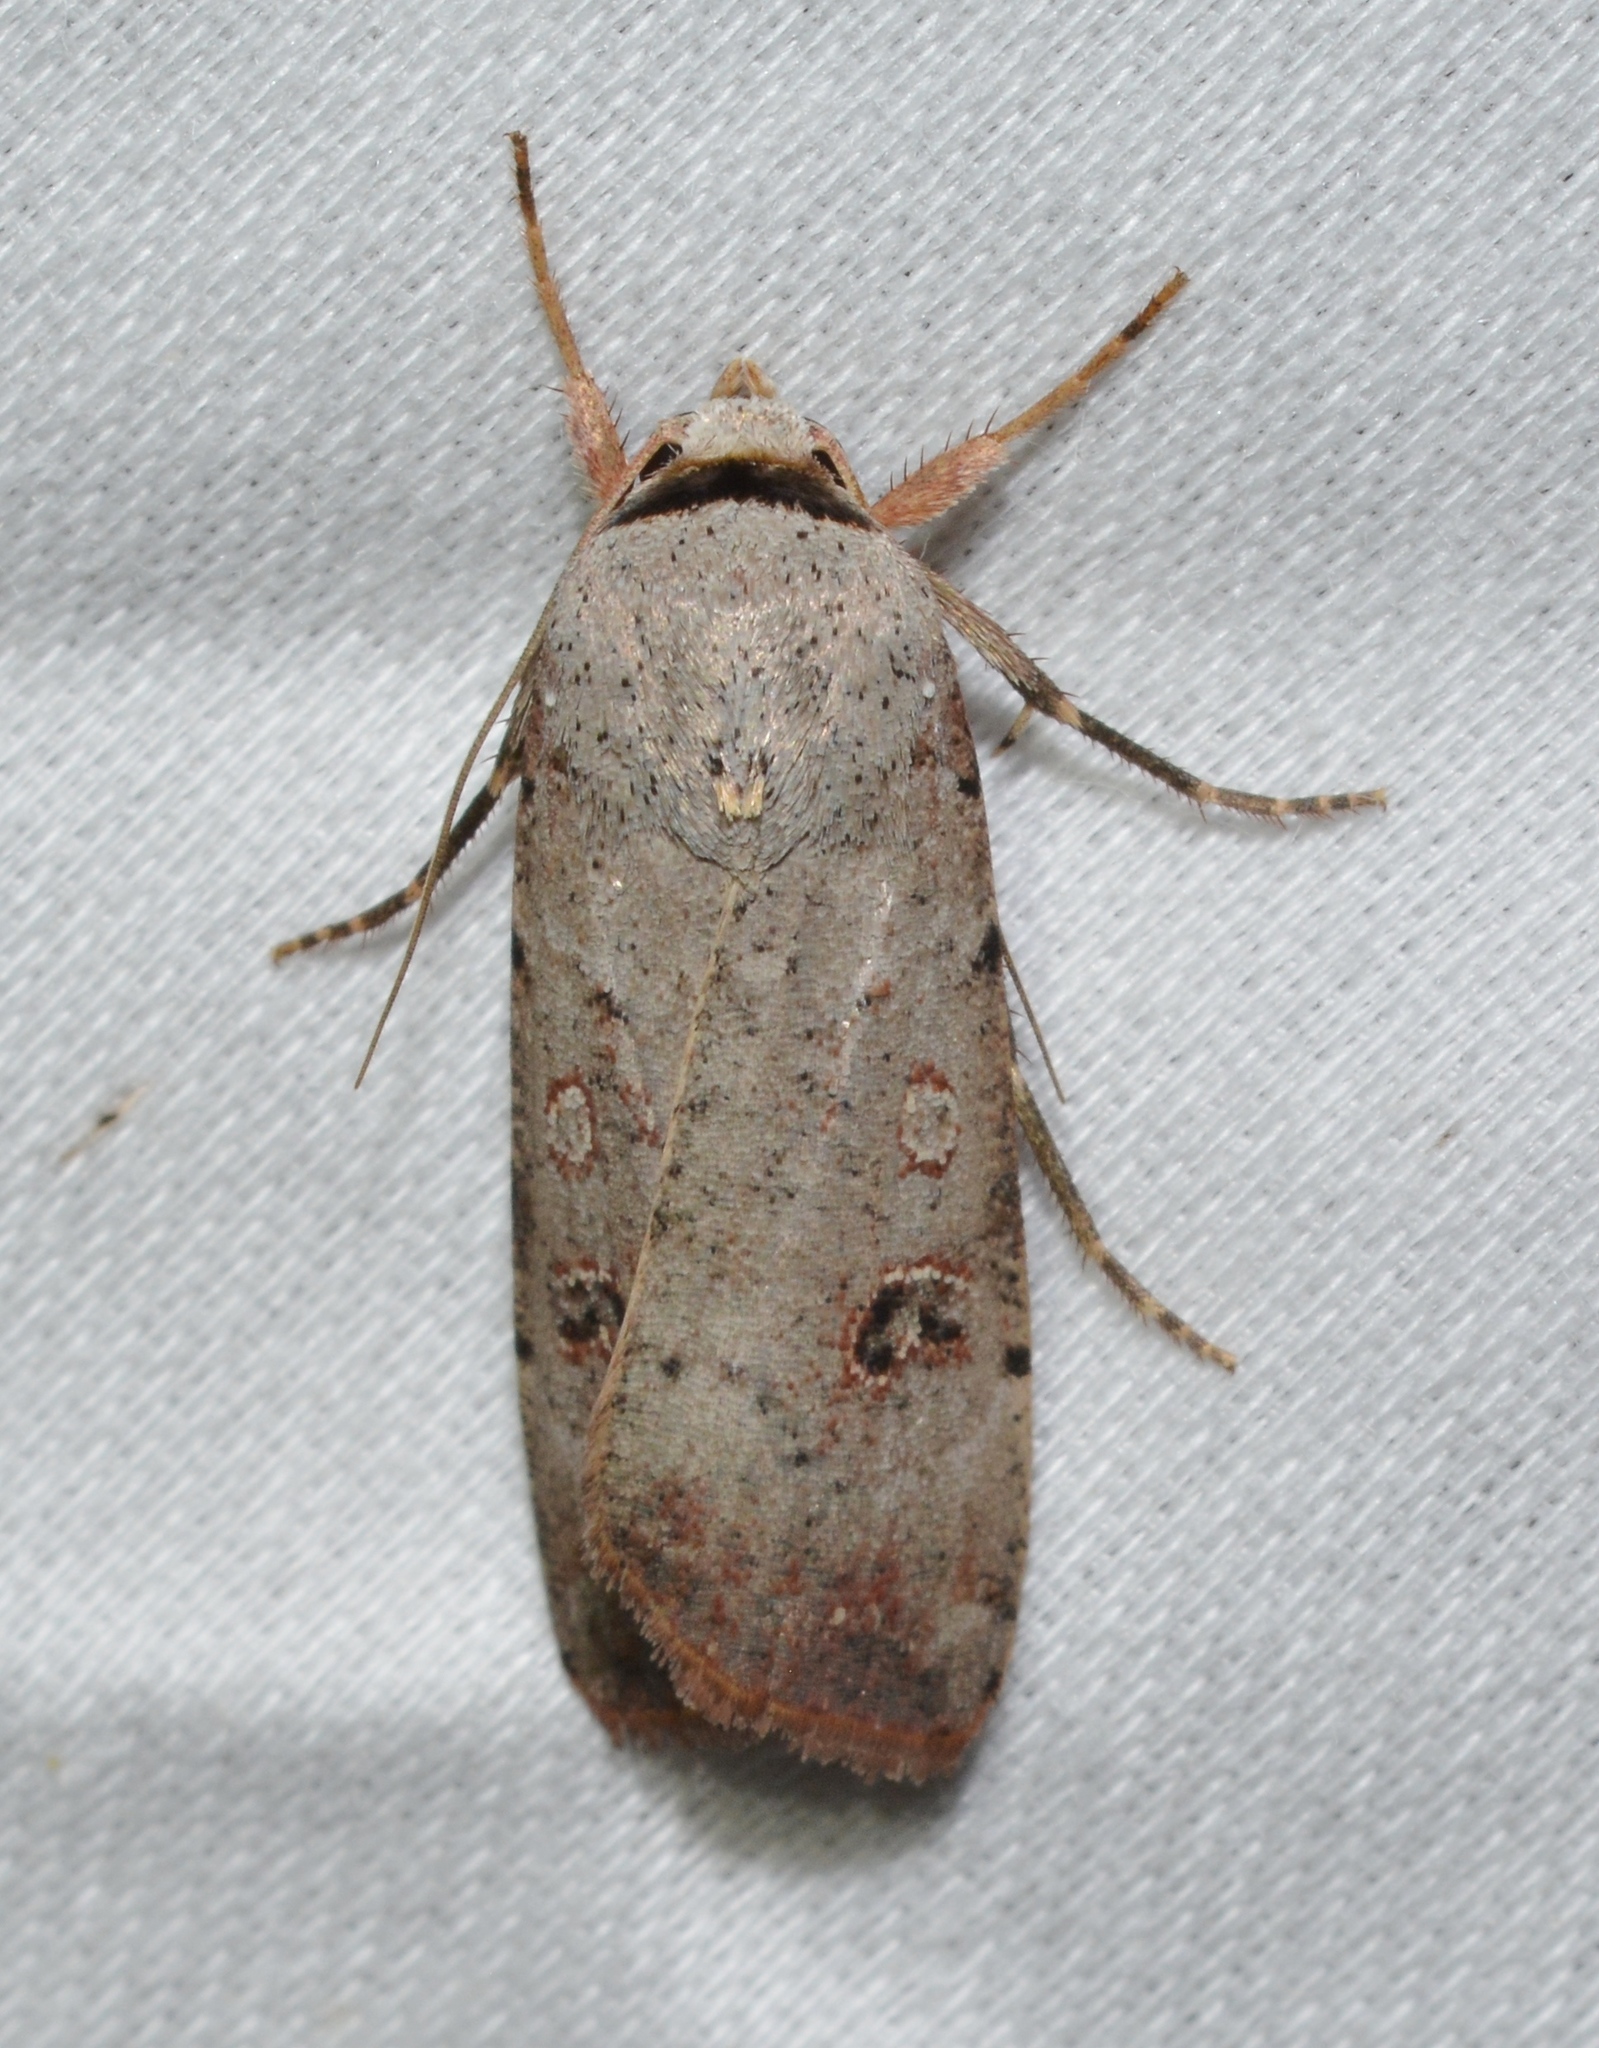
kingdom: Animalia
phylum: Arthropoda
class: Insecta
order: Lepidoptera
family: Noctuidae
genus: Anicla
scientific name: Anicla infecta
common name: Green cutworm
